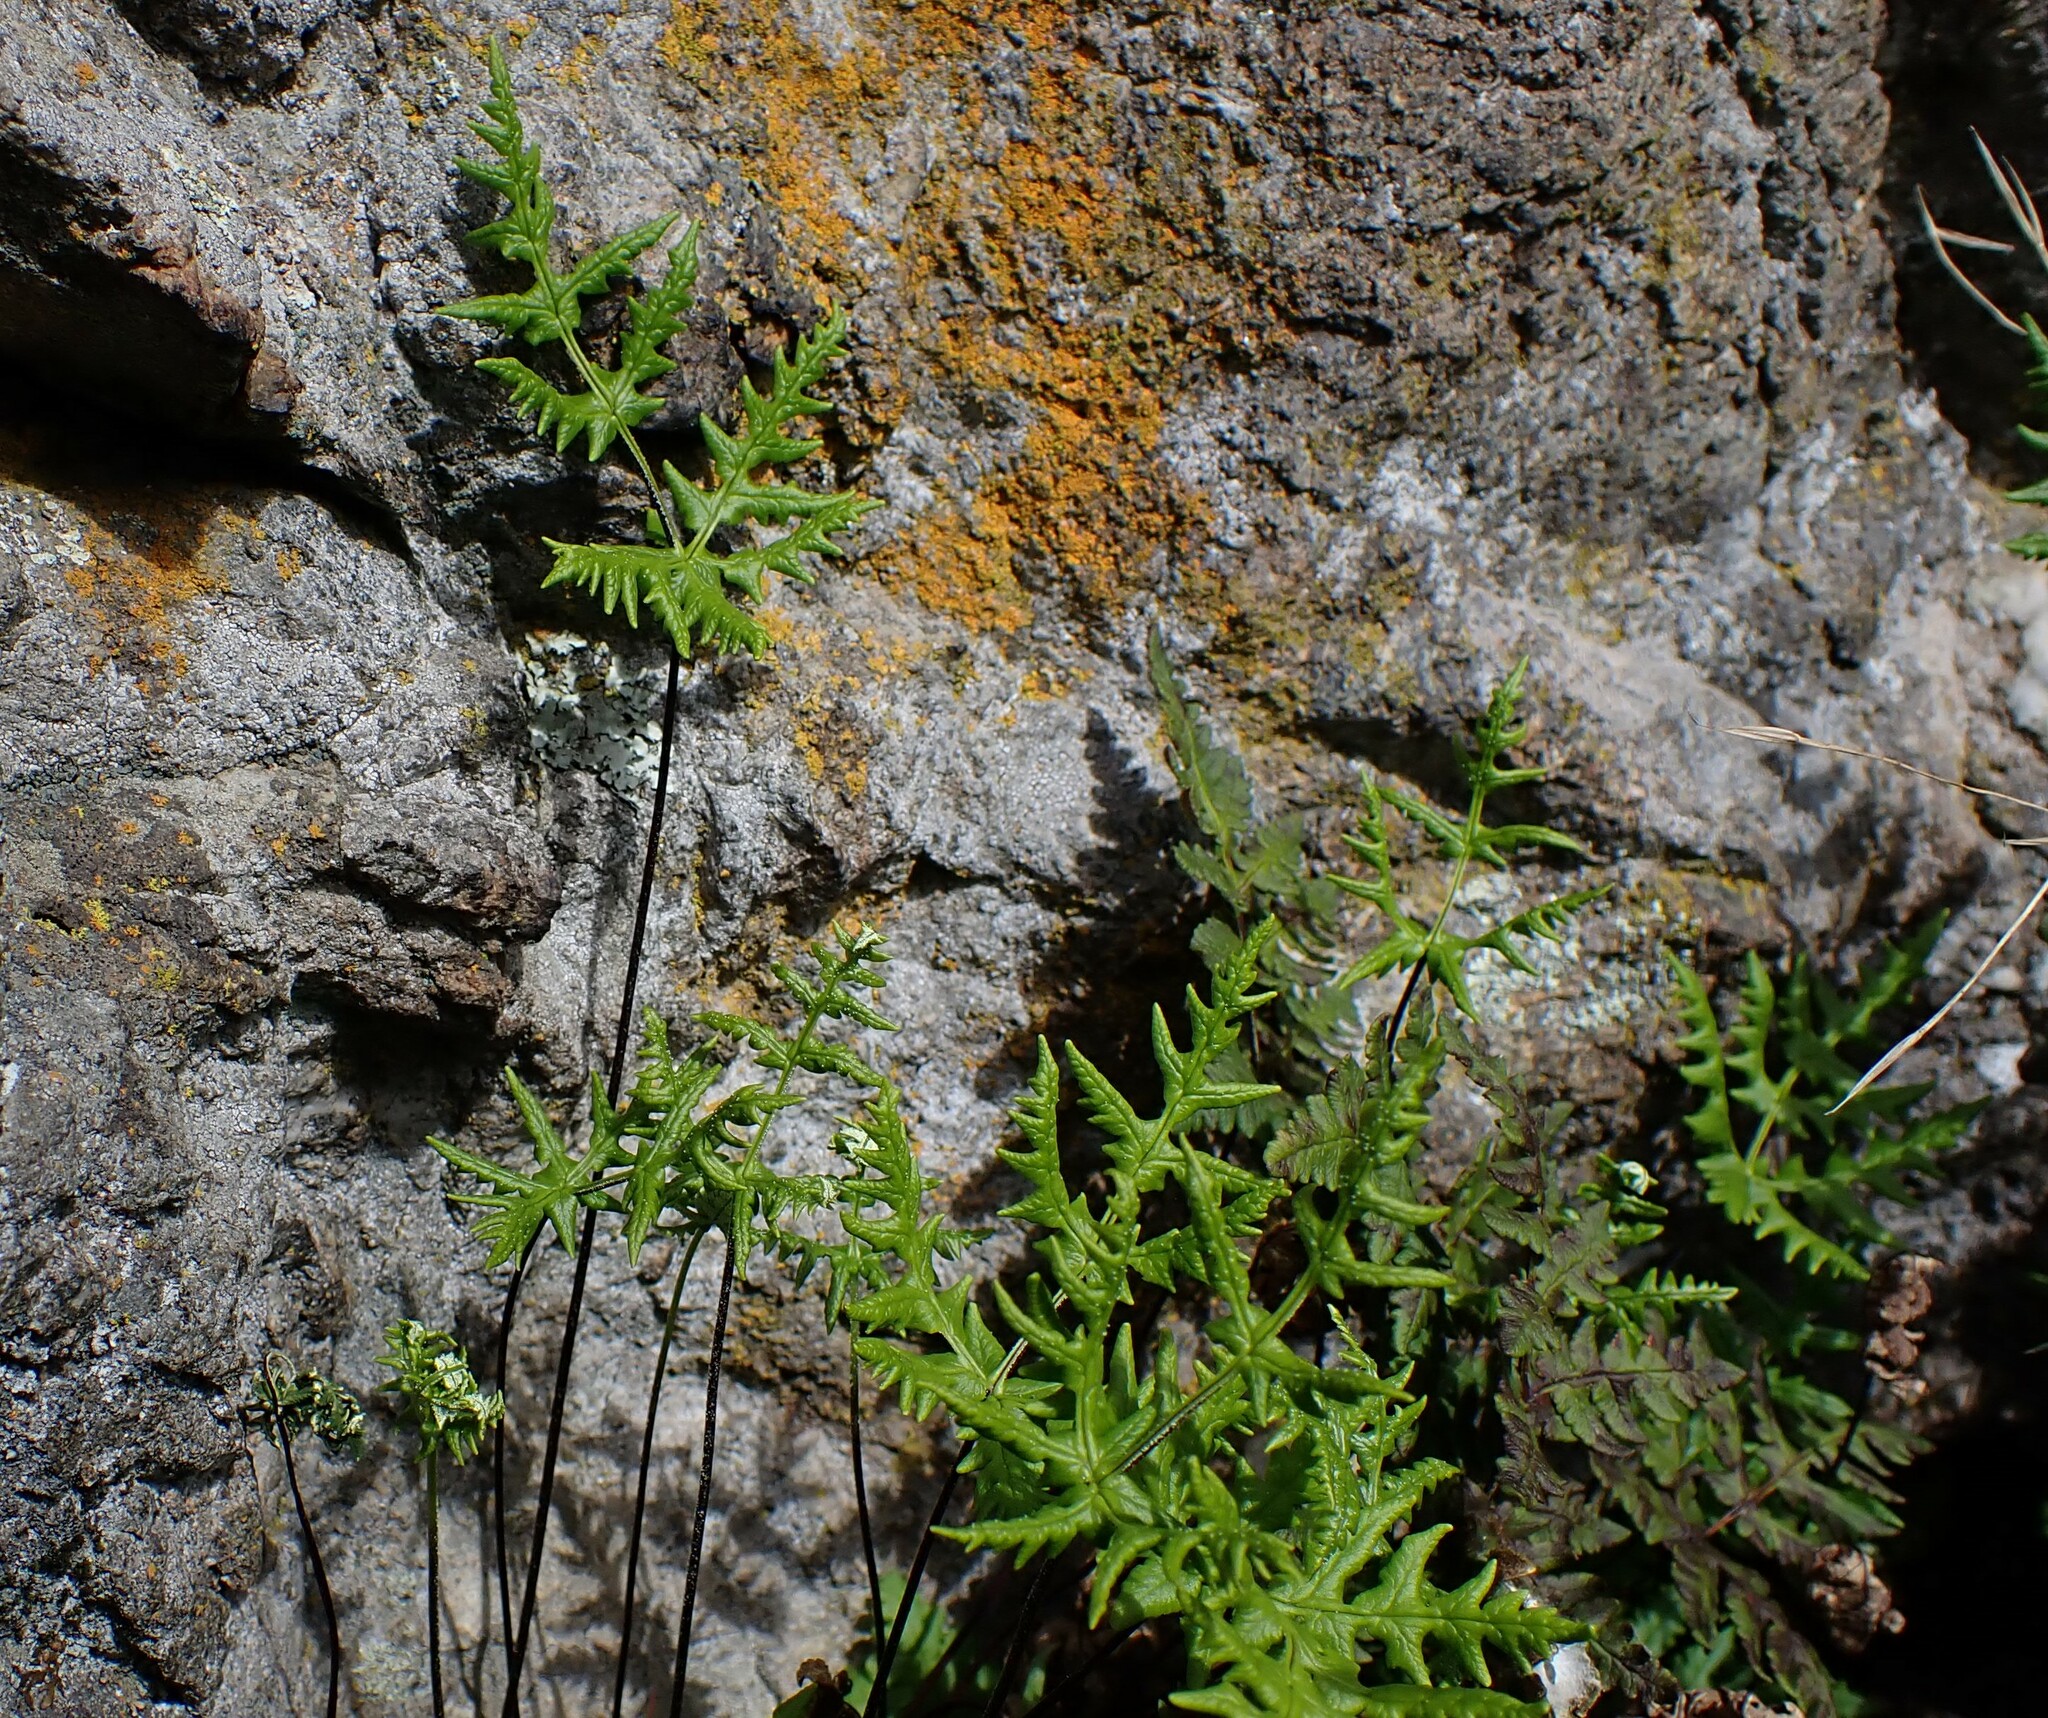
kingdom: Plantae
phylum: Tracheophyta
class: Polypodiopsida
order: Polypodiales
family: Pteridaceae
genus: Pentagramma
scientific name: Pentagramma triangularis
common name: Gold fern
